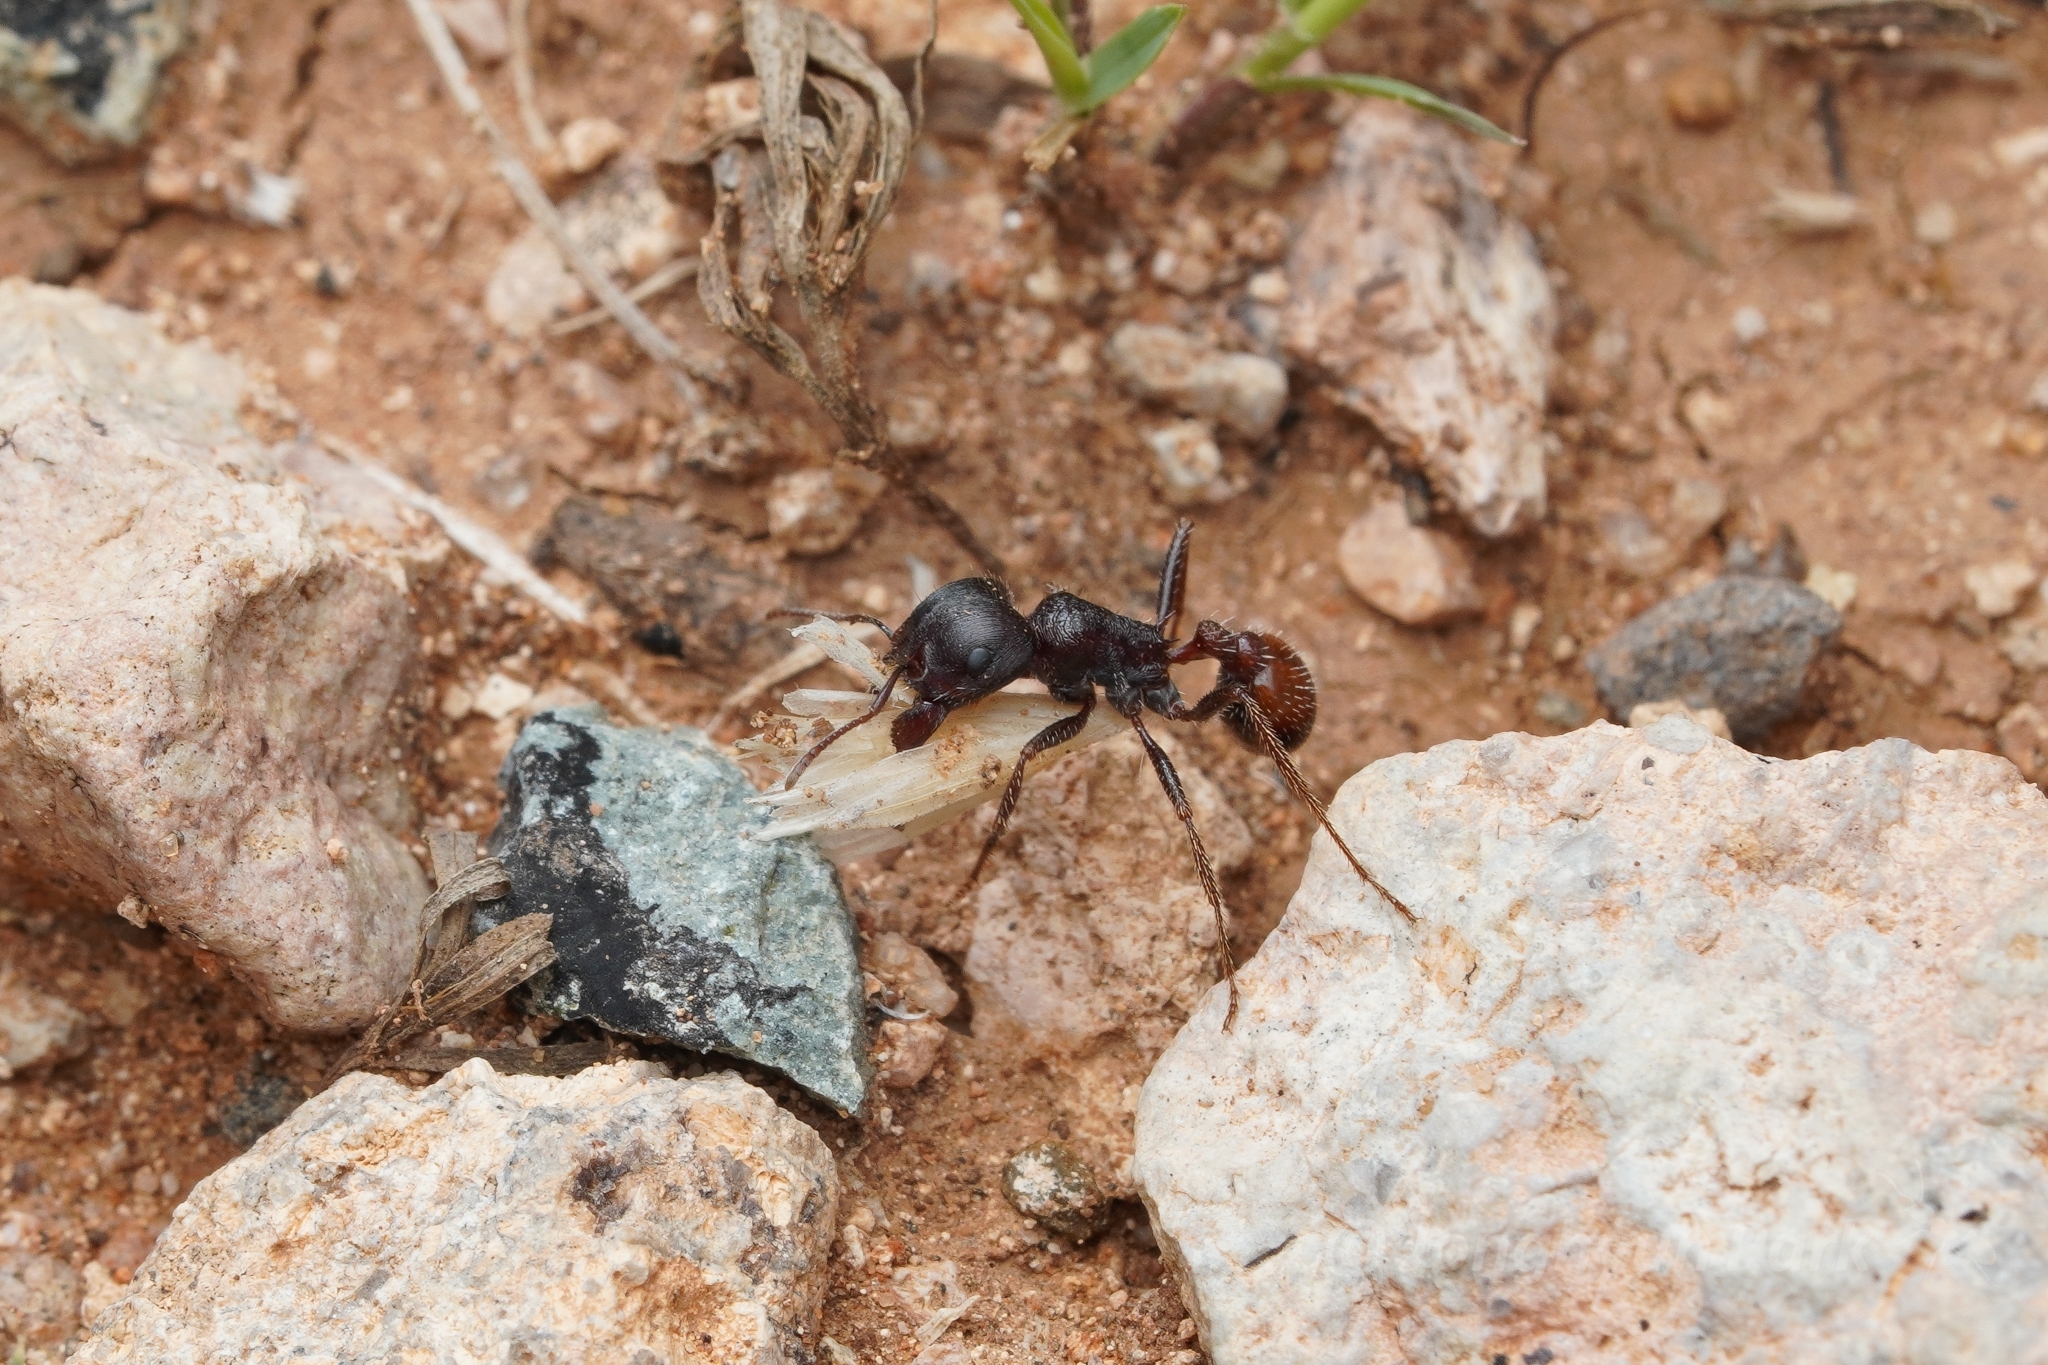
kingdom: Animalia
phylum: Arthropoda
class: Insecta
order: Hymenoptera
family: Formicidae
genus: Pogonomyrmex
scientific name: Pogonomyrmex rugosus
